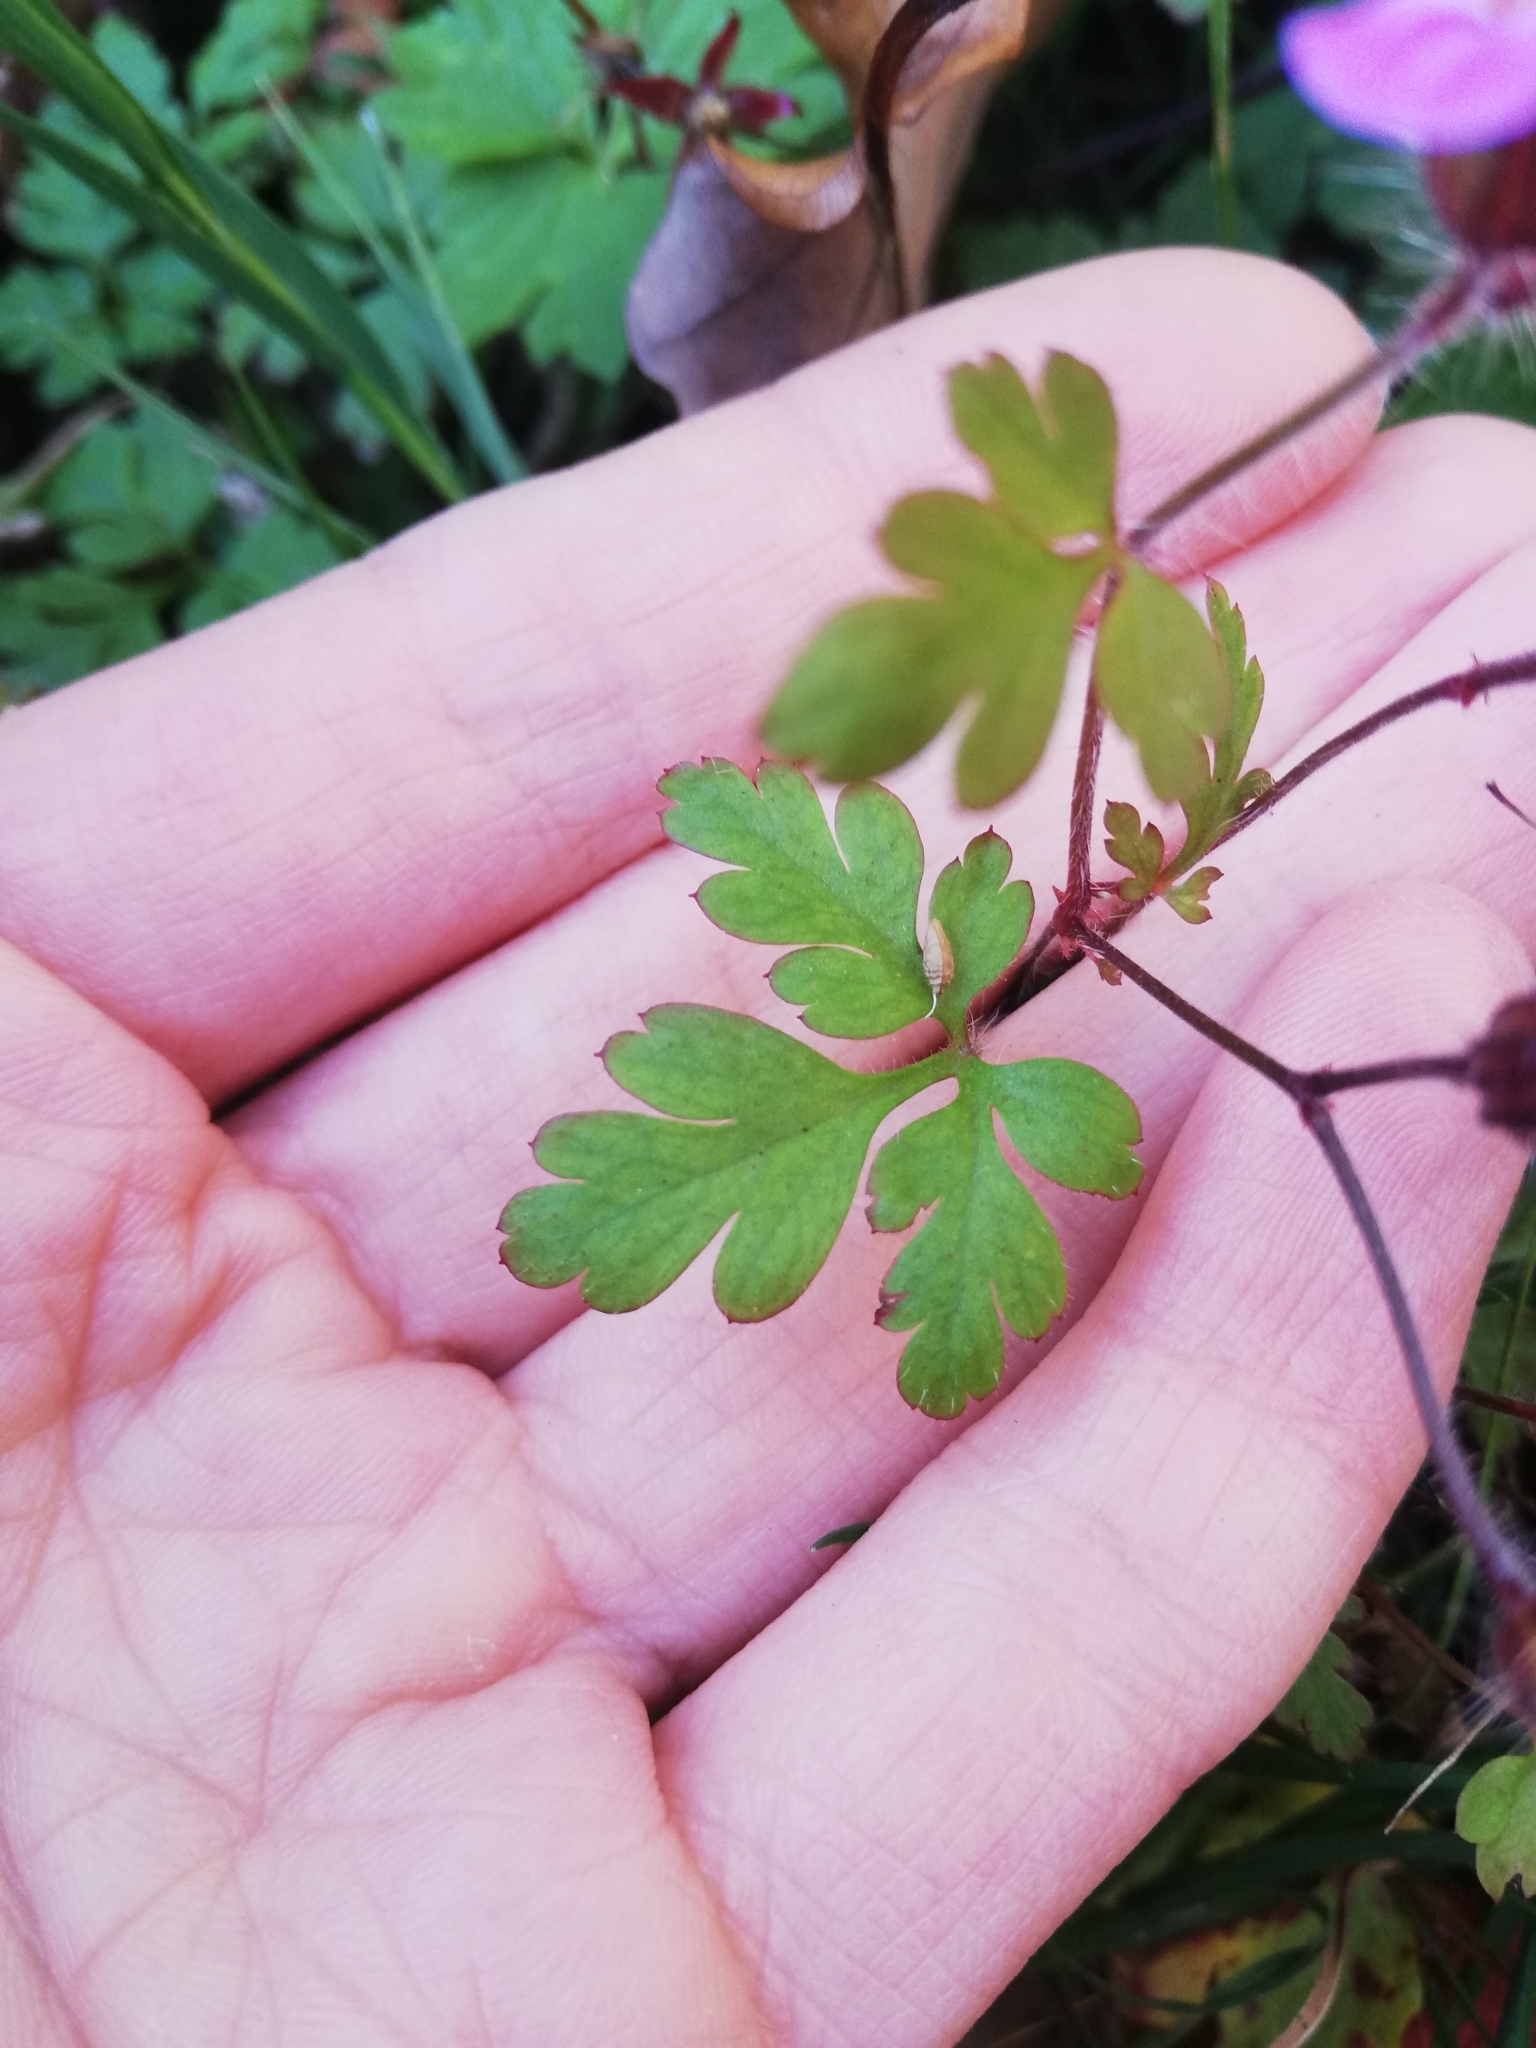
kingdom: Plantae
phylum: Tracheophyta
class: Magnoliopsida
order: Geraniales
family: Geraniaceae
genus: Geranium
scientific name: Geranium robertianum
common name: Herb-robert
